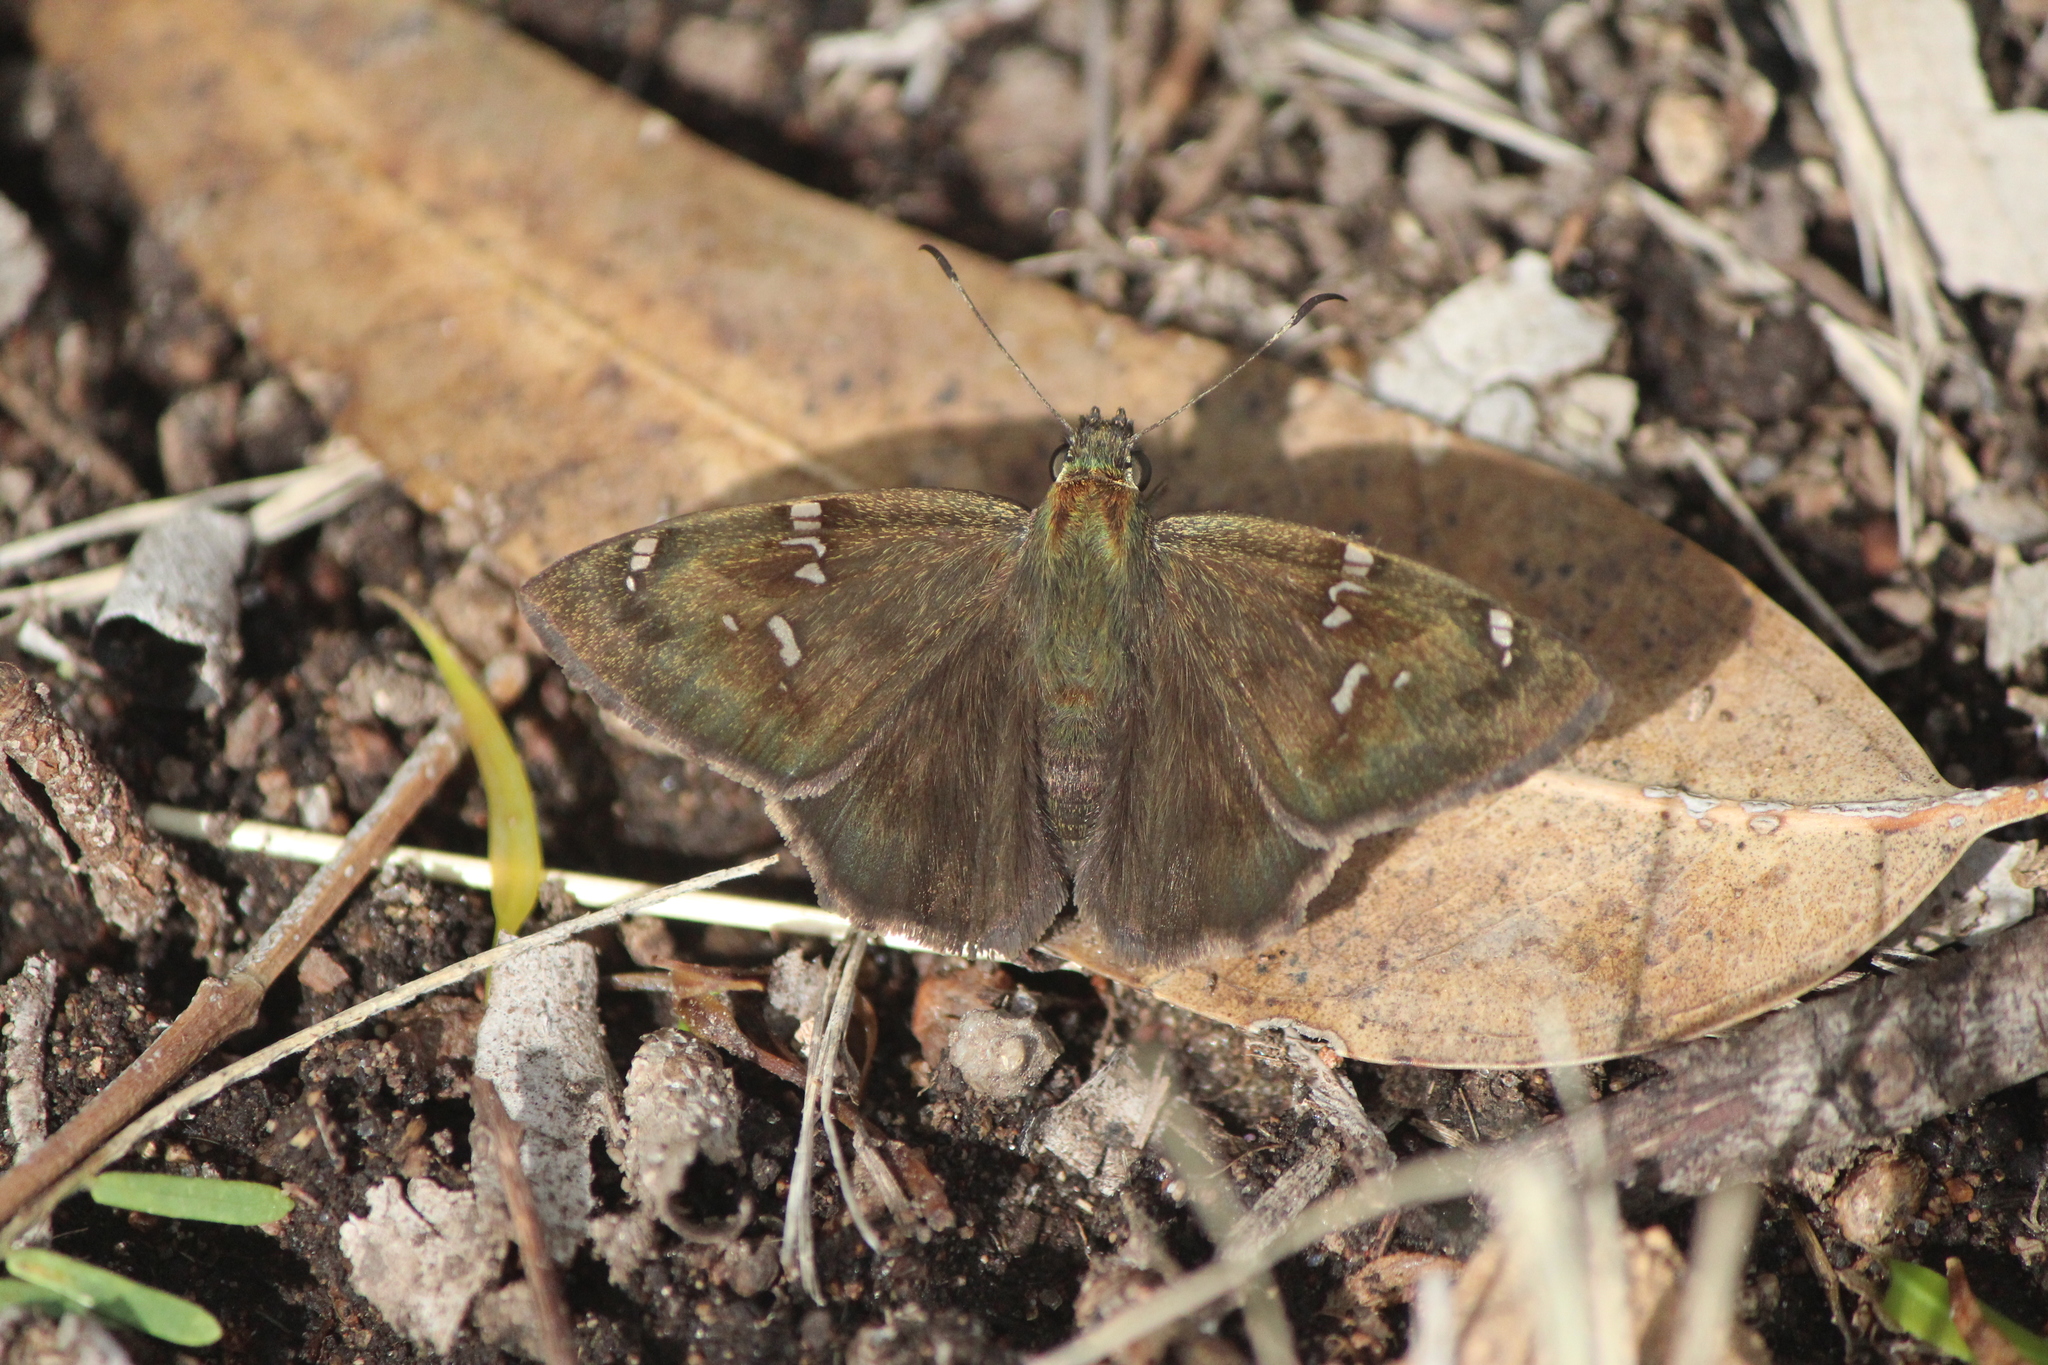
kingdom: Animalia
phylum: Arthropoda
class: Insecta
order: Lepidoptera
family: Hesperiidae
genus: Autochton
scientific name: Autochton potrillo
